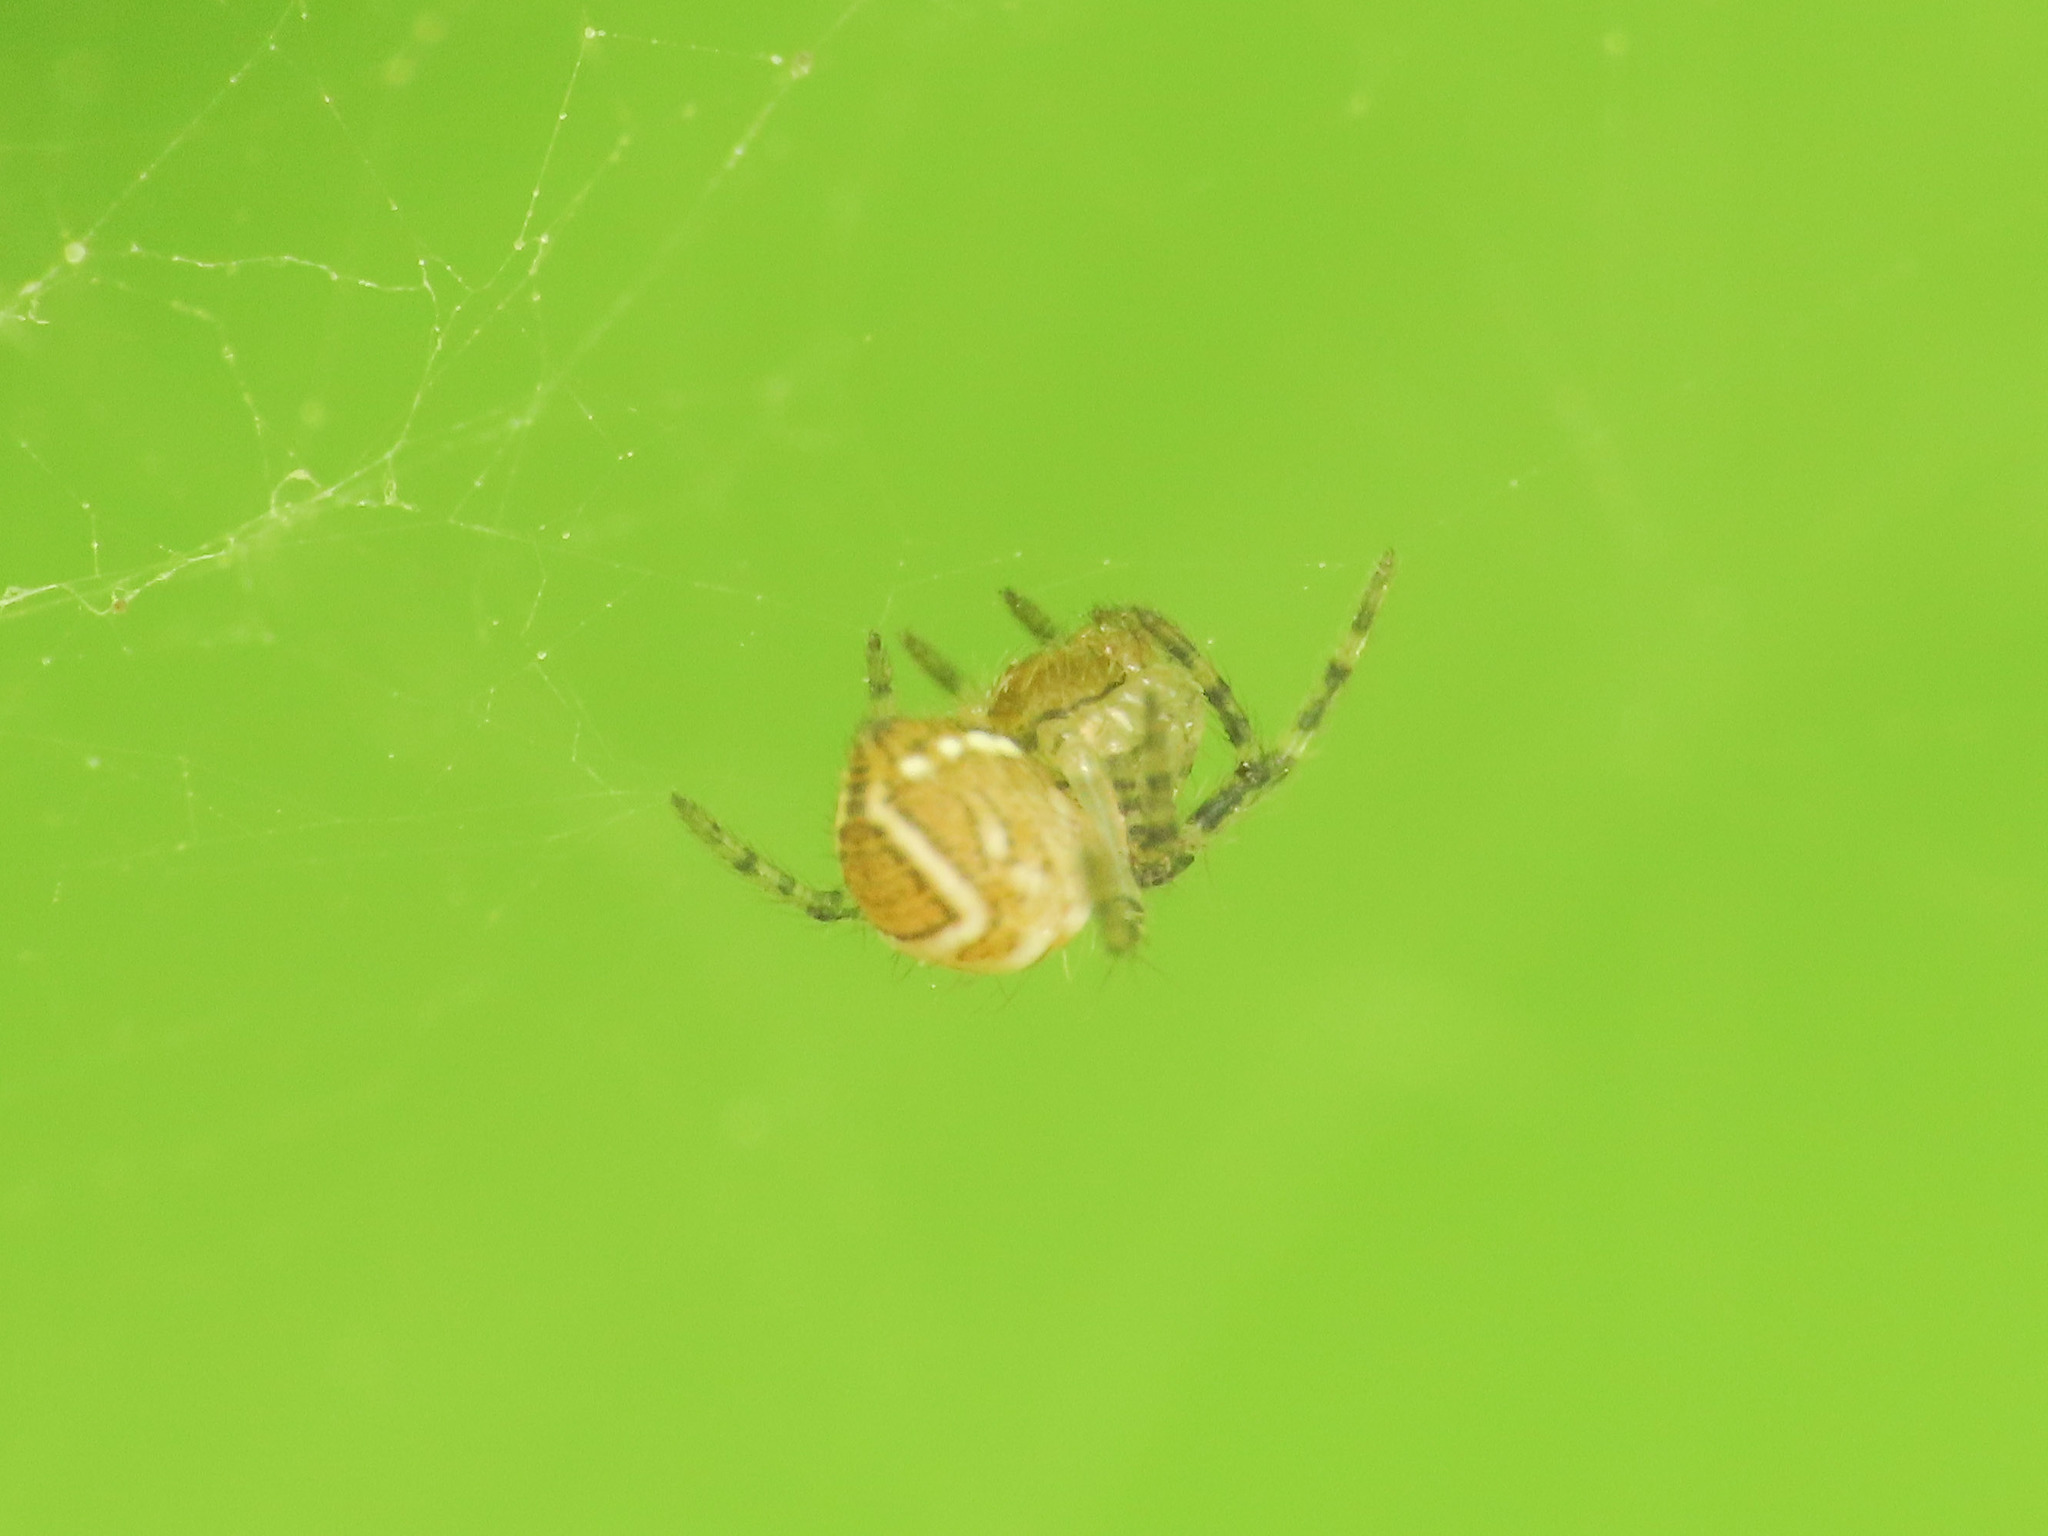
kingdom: Animalia
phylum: Arthropoda
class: Arachnida
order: Araneae
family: Araneidae
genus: Cyrtophora
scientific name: Cyrtophora cicatrosa
